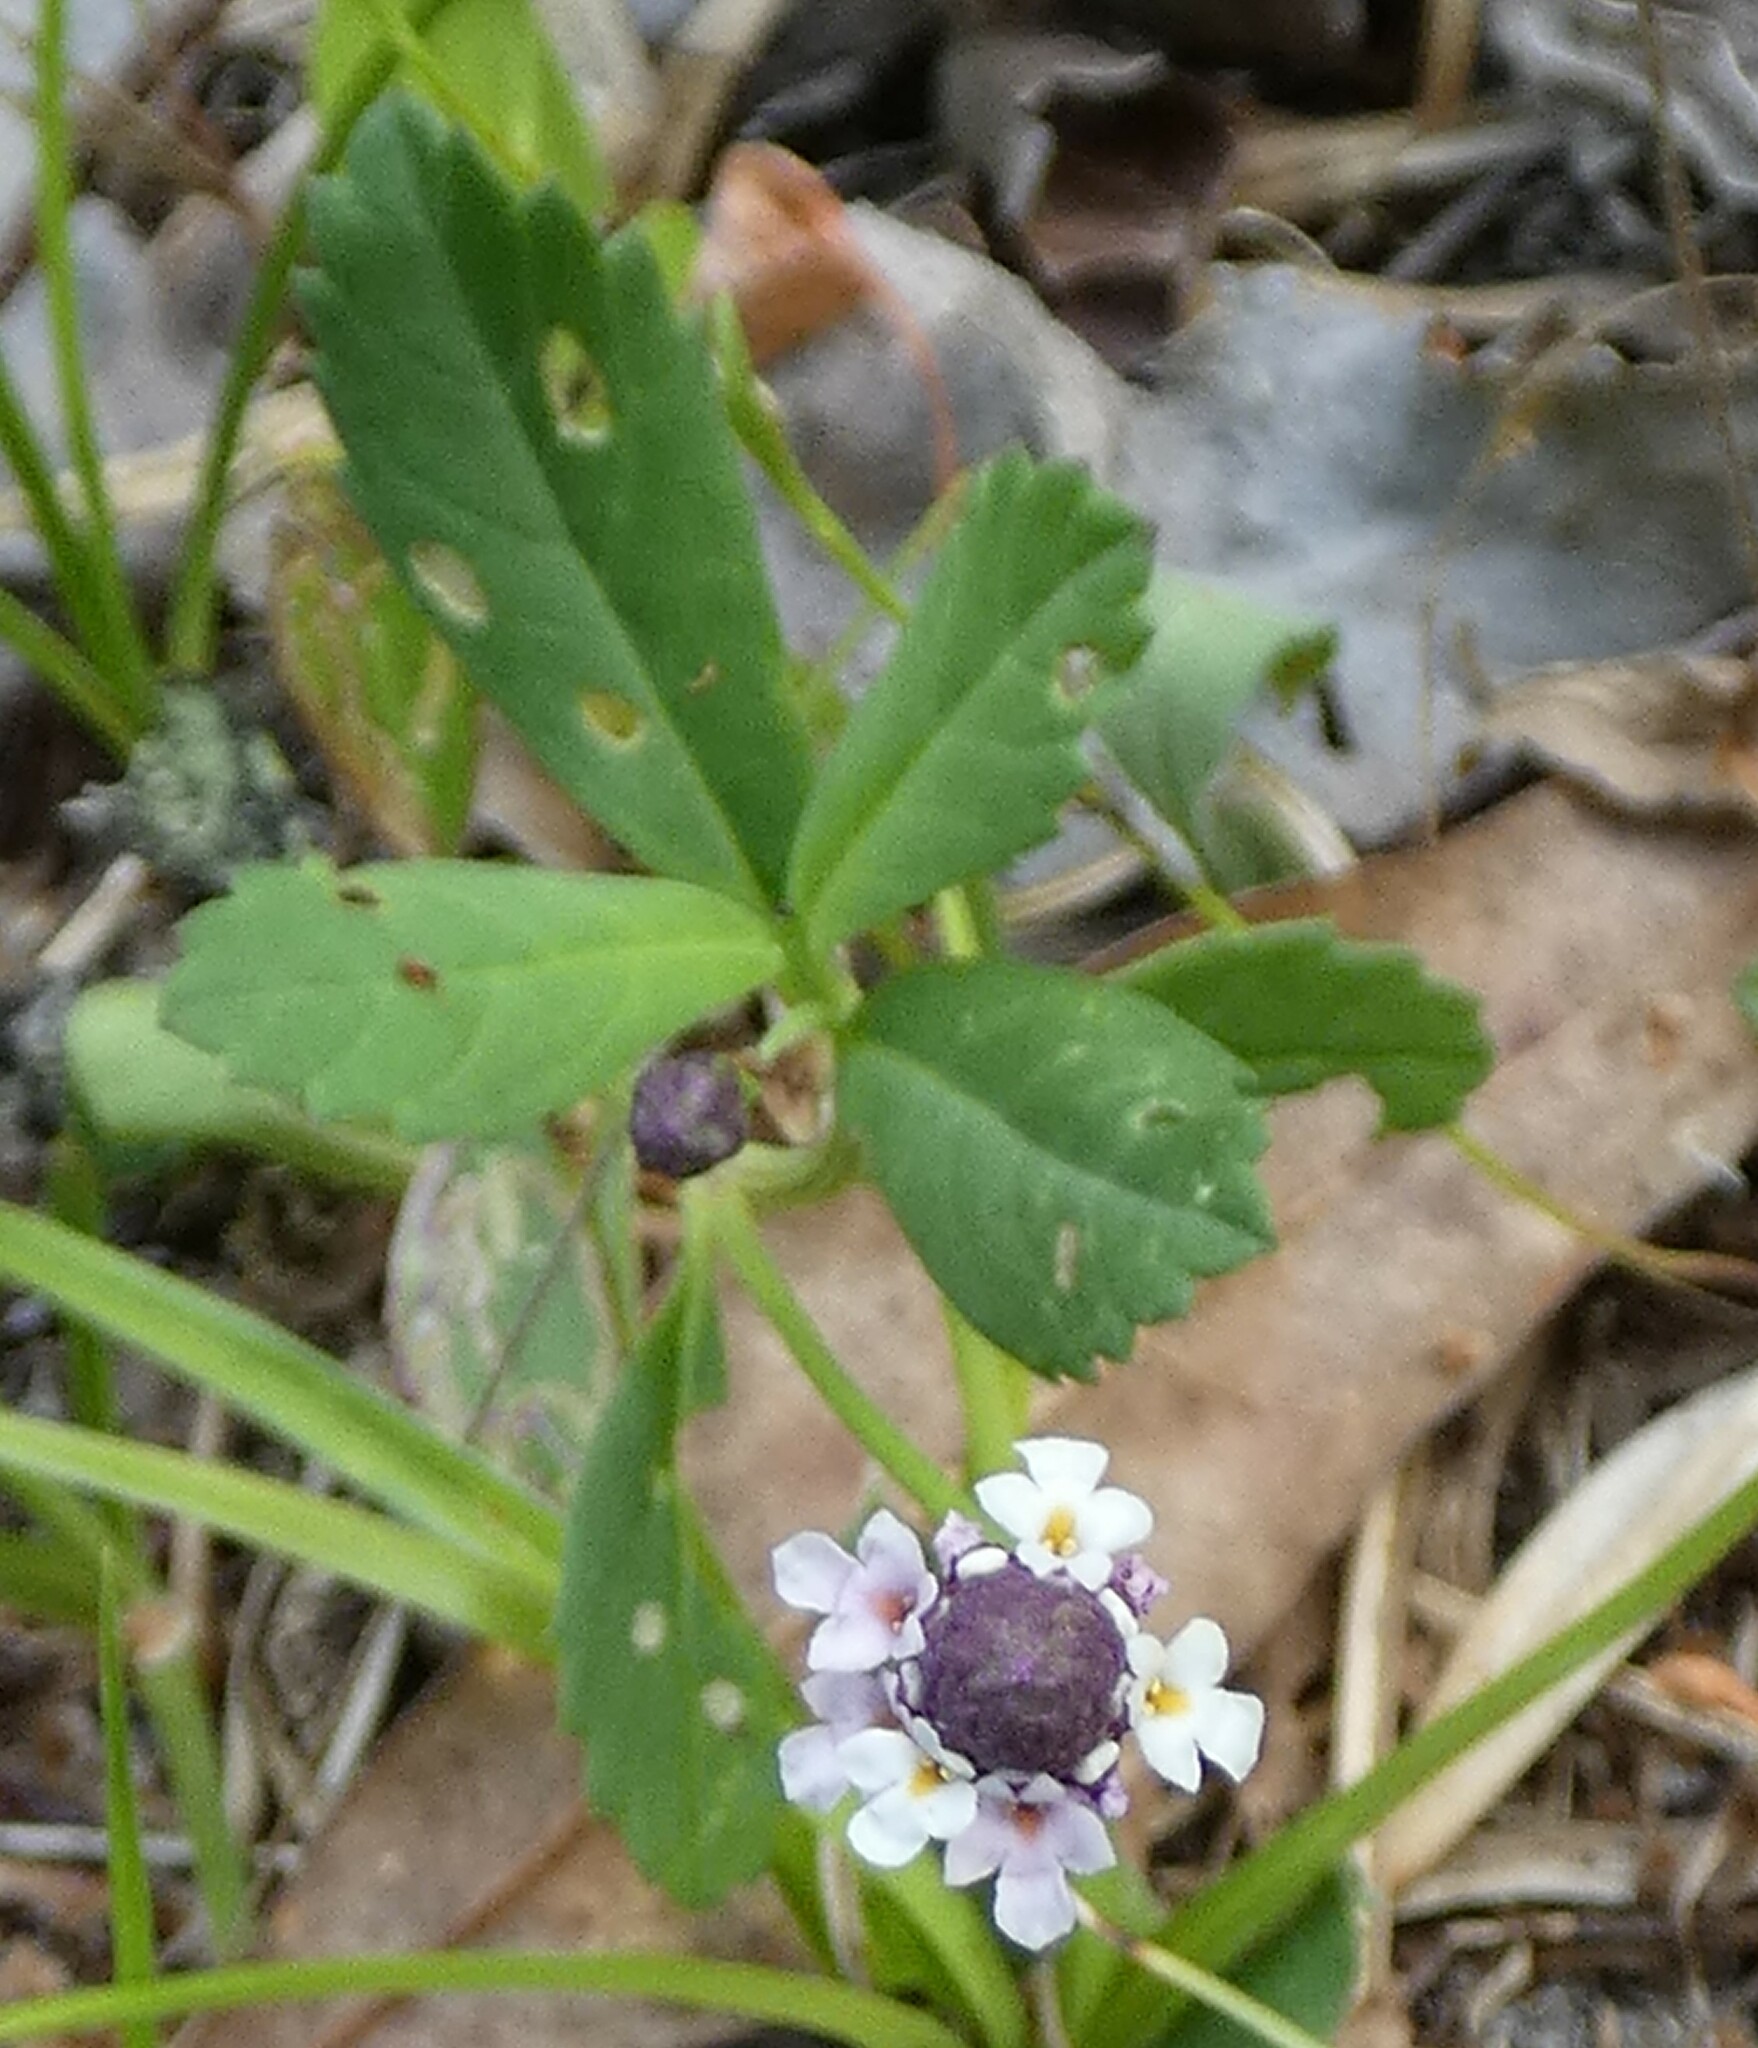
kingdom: Plantae
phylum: Tracheophyta
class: Magnoliopsida
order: Lamiales
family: Verbenaceae
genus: Phyla
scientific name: Phyla nodiflora
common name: Frogfruit
